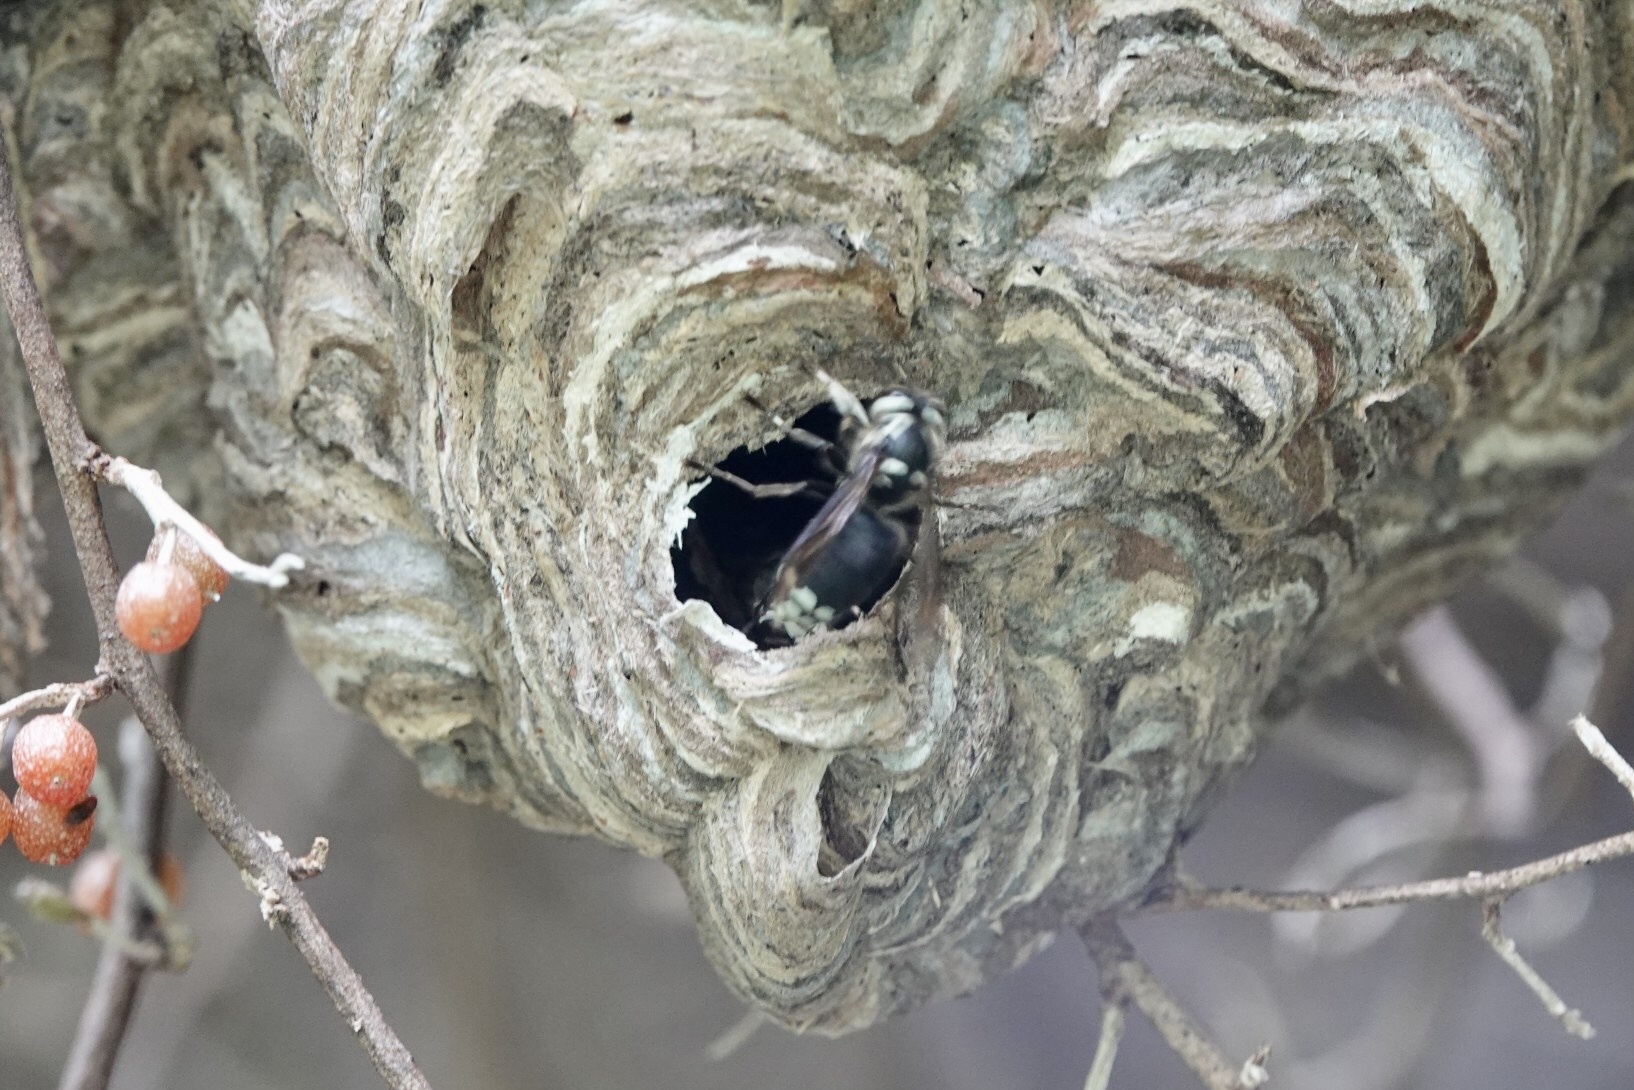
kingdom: Animalia
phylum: Arthropoda
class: Insecta
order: Hymenoptera
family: Vespidae
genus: Dolichovespula
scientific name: Dolichovespula maculata
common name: Bald-faced hornet
